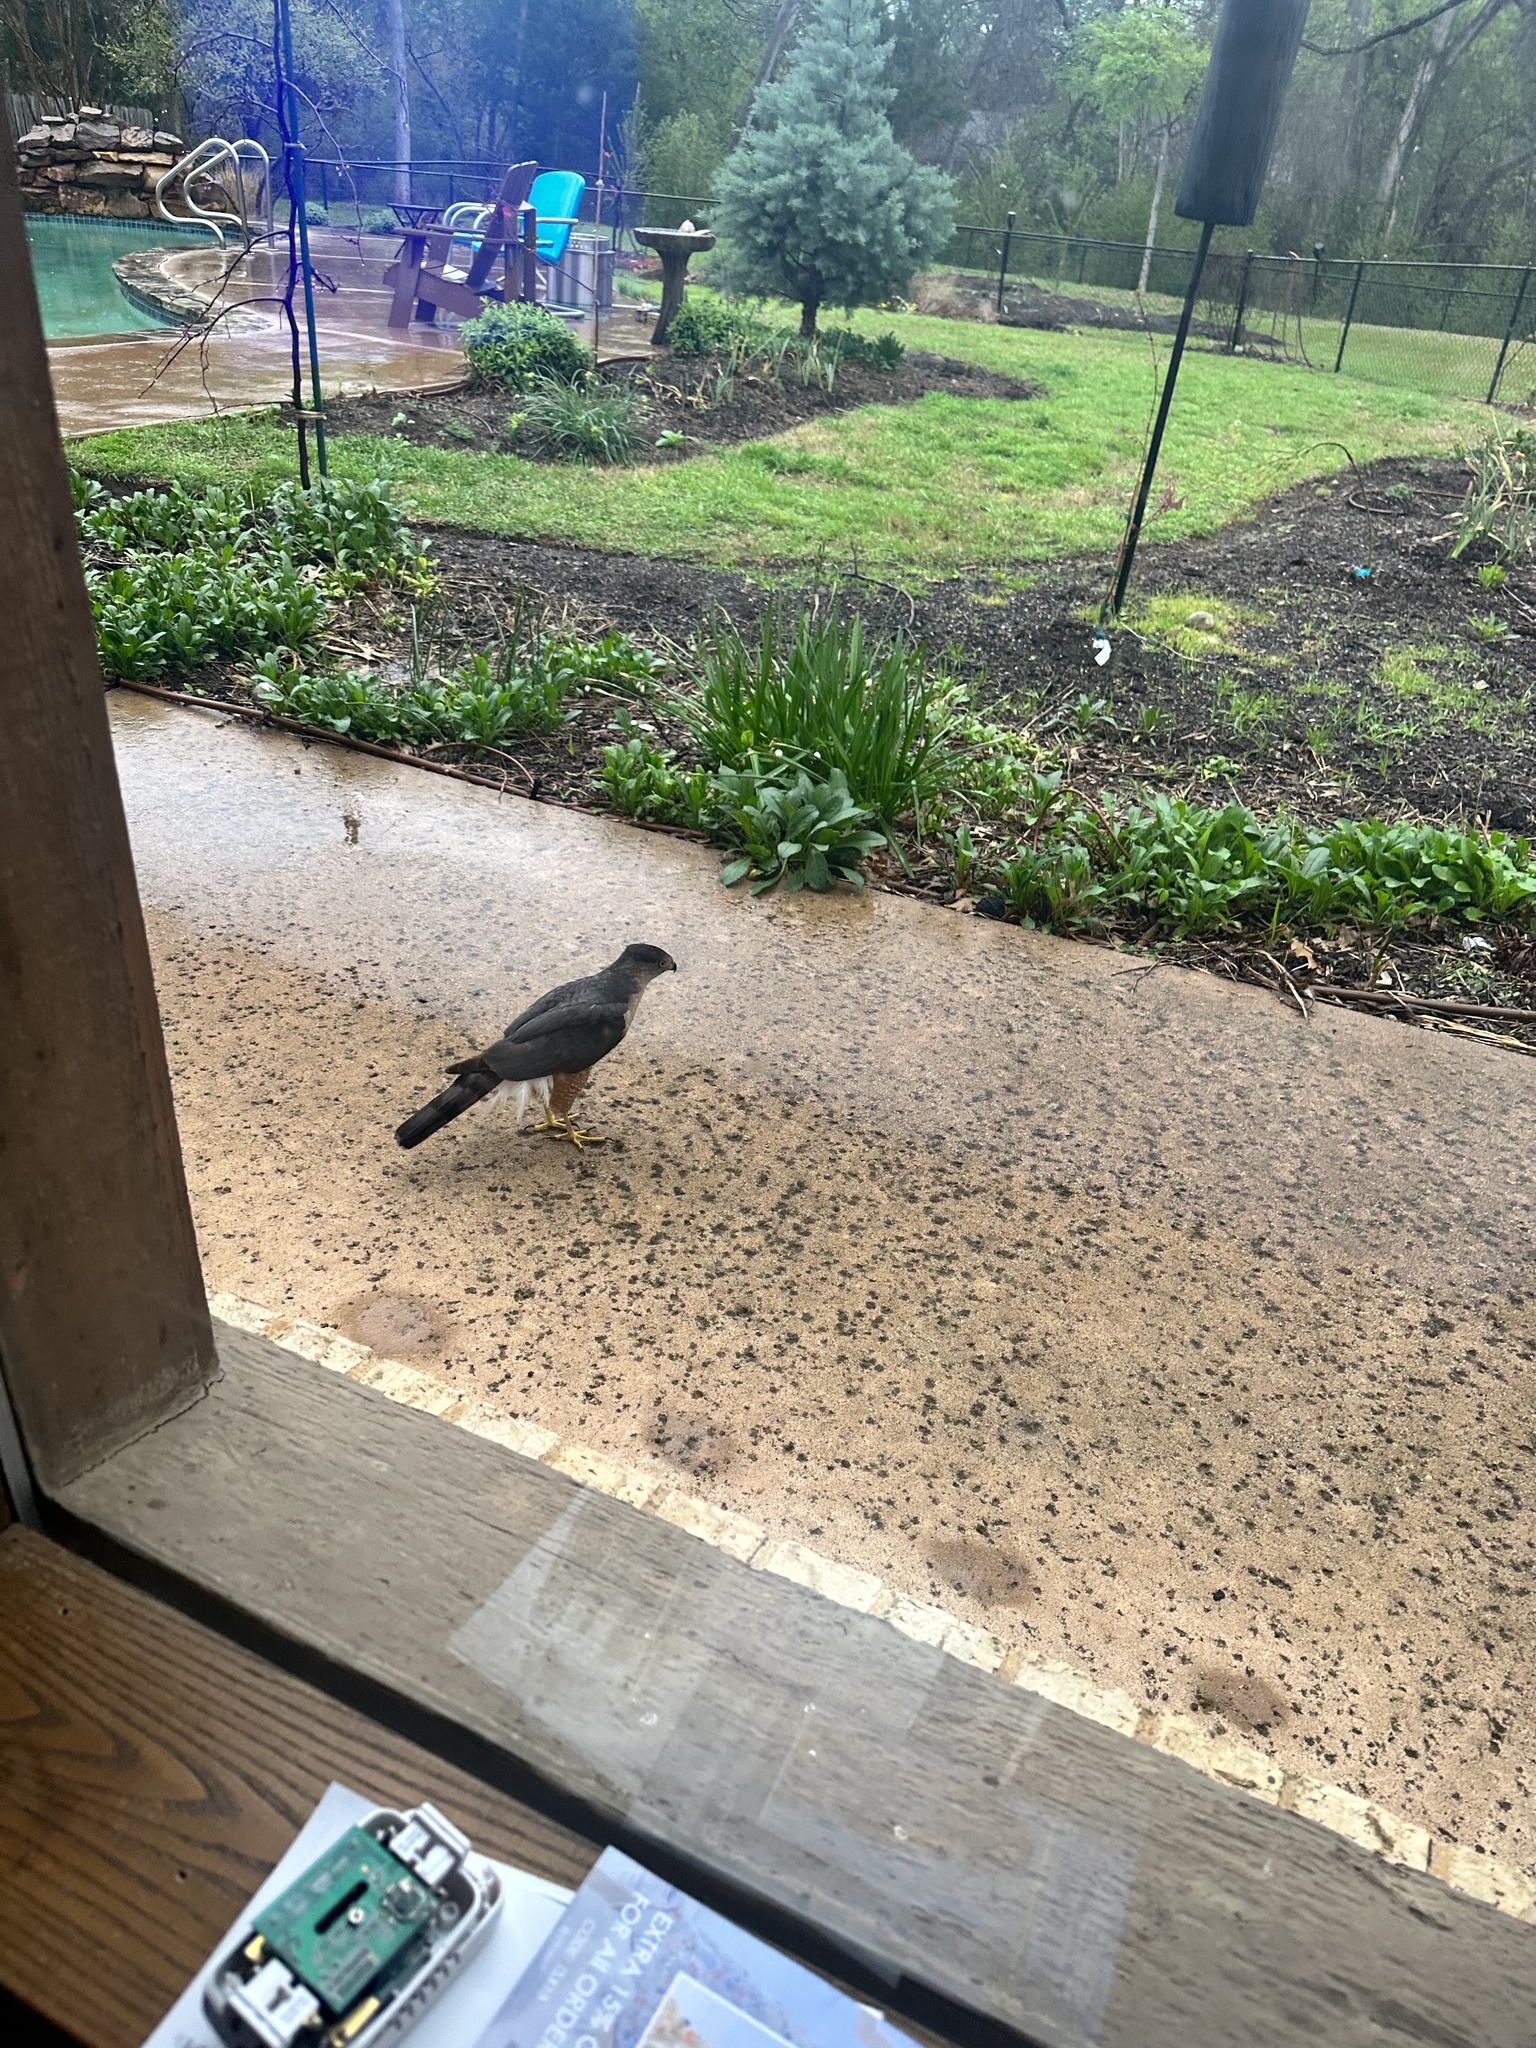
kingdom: Animalia
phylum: Chordata
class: Aves
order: Accipitriformes
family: Accipitridae
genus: Accipiter
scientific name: Accipiter cooperii
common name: Cooper's hawk
